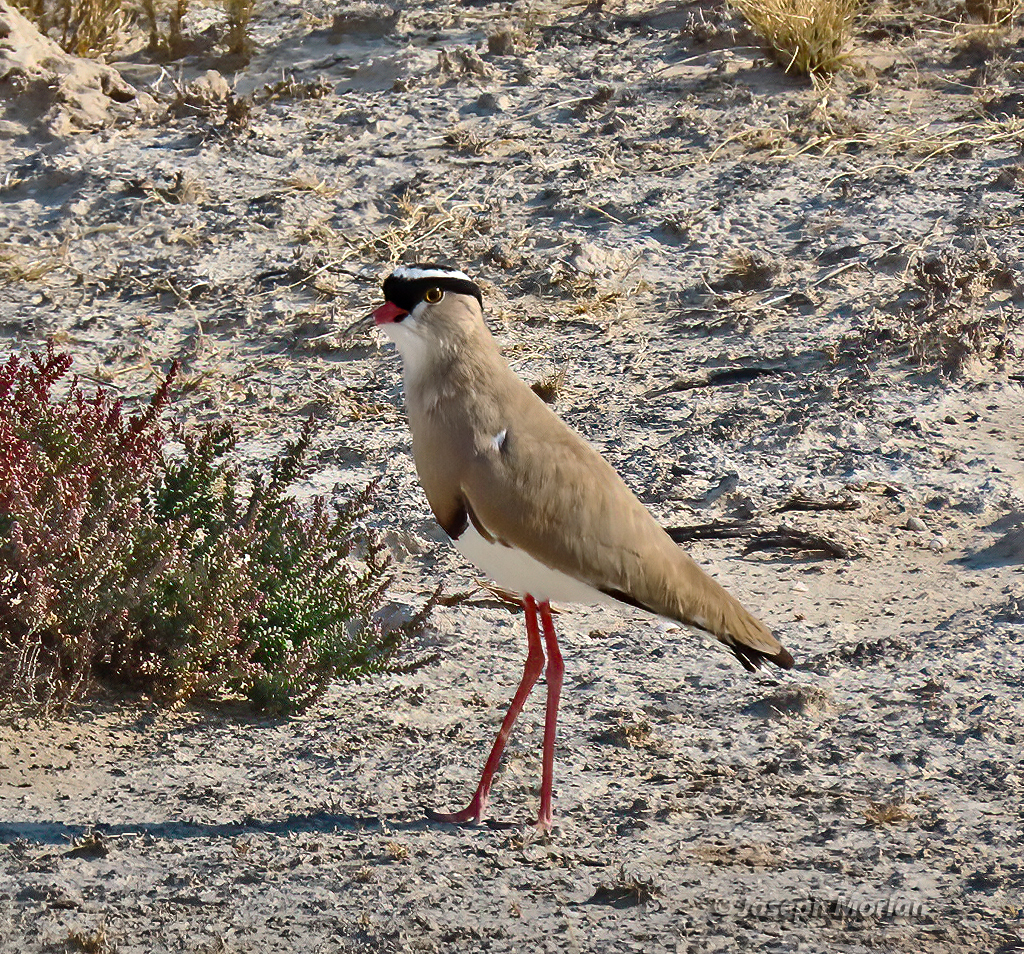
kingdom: Animalia
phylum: Chordata
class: Aves
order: Charadriiformes
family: Charadriidae
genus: Vanellus
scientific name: Vanellus coronatus
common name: Crowned lapwing
